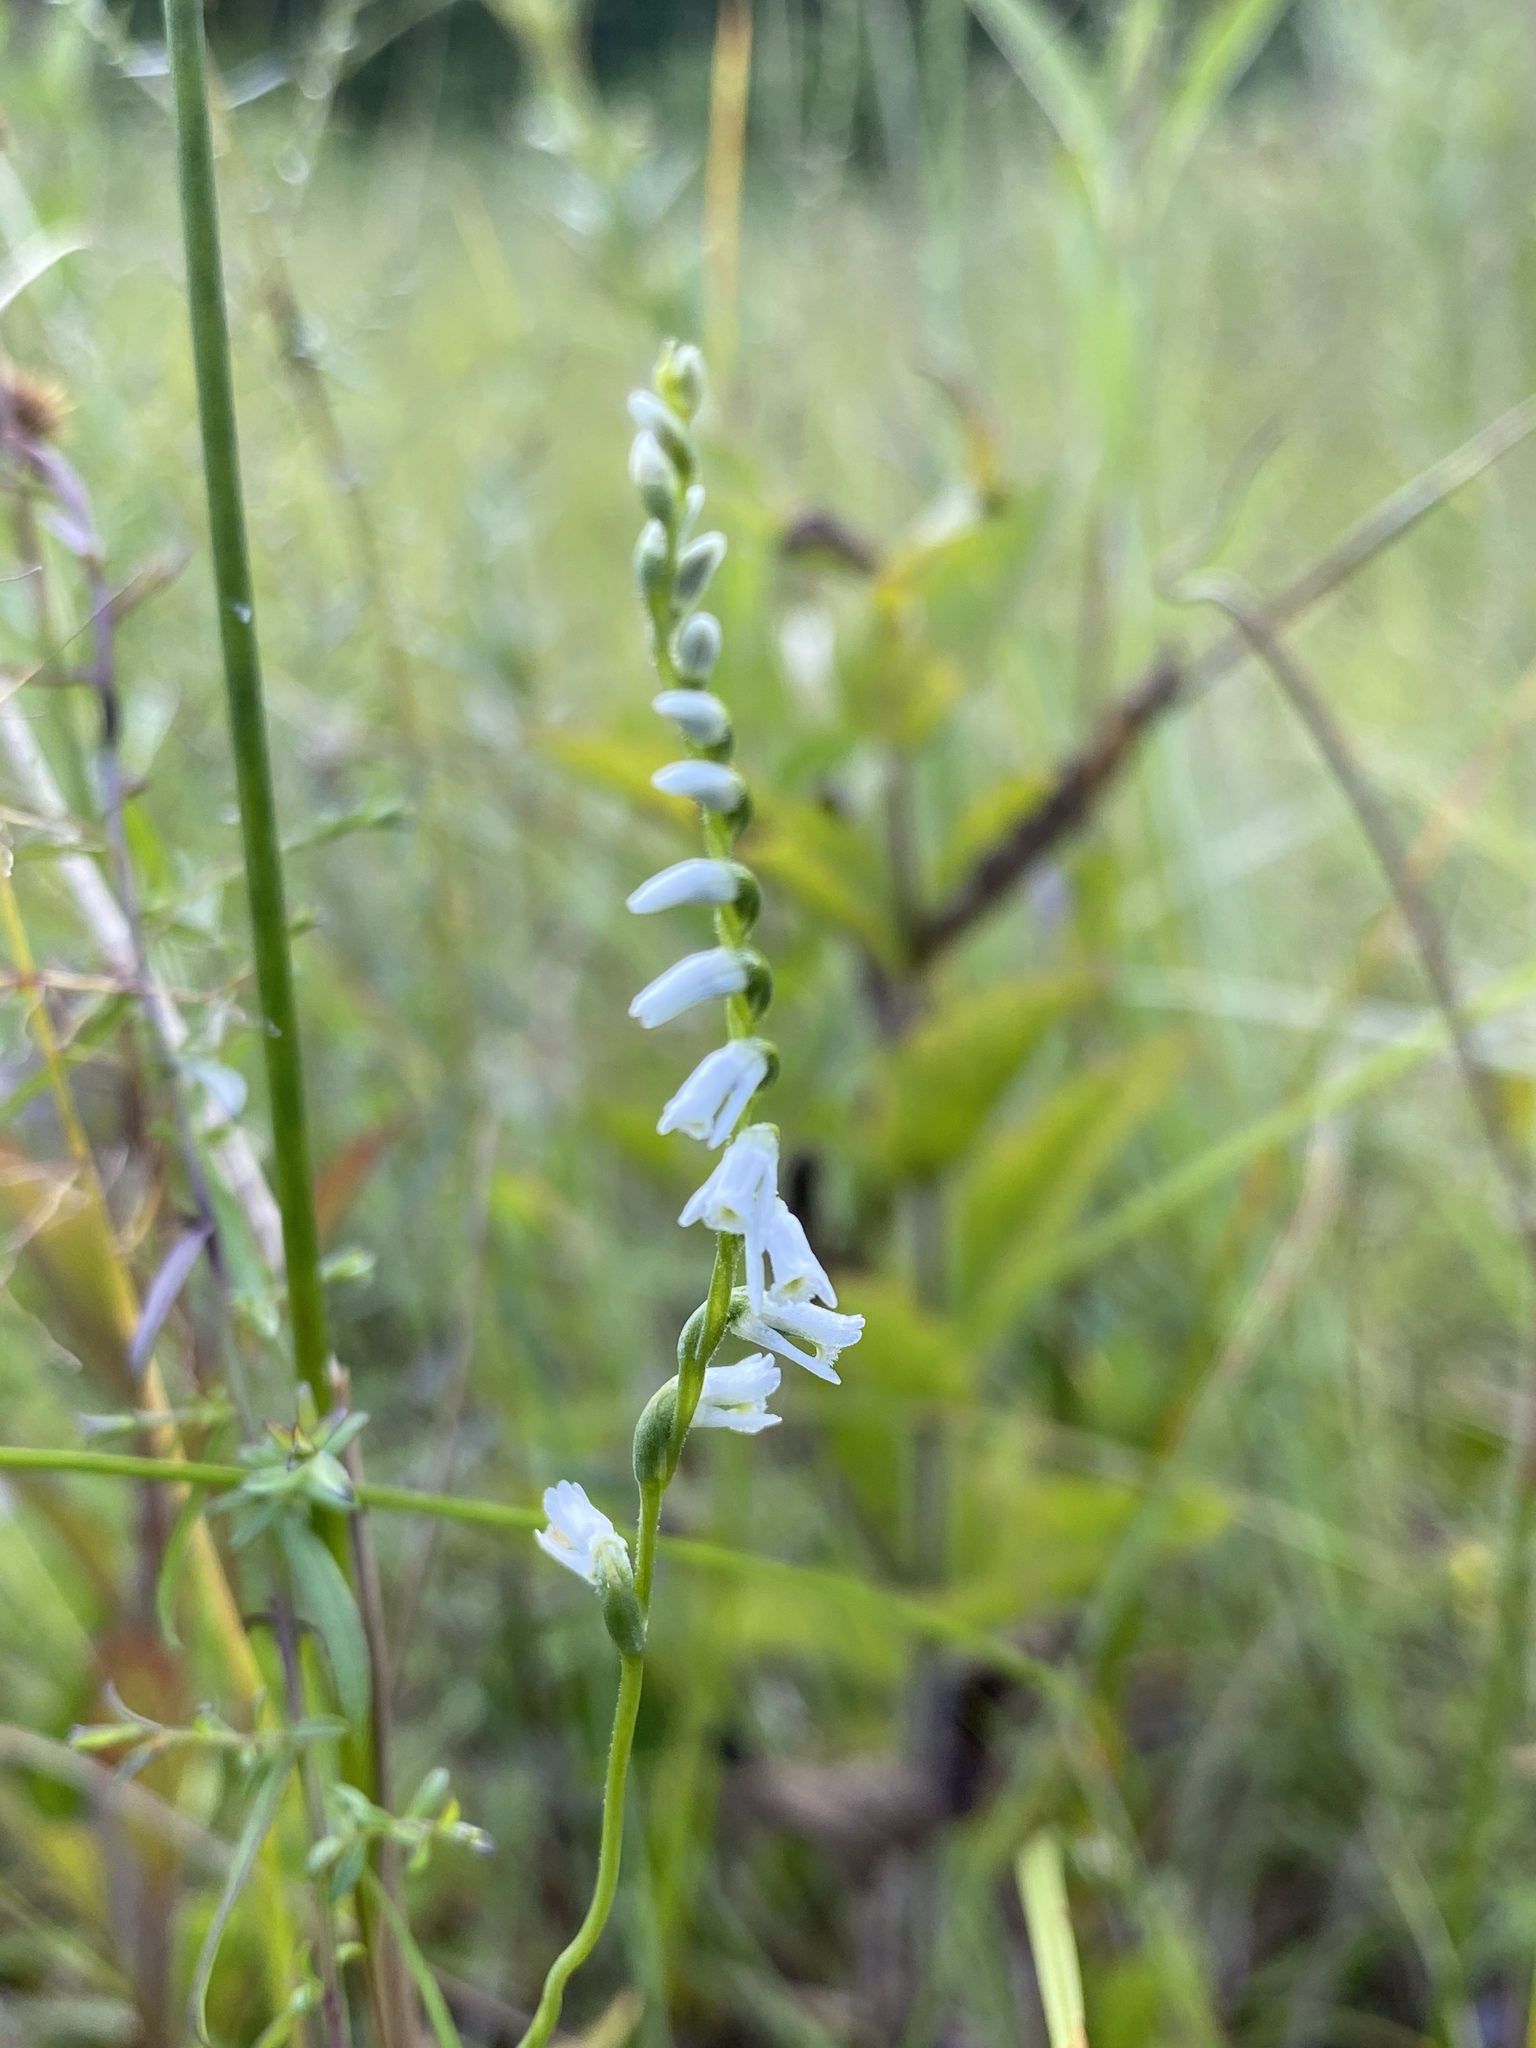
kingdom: Plantae
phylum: Tracheophyta
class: Liliopsida
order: Asparagales
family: Orchidaceae
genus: Spiranthes
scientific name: Spiranthes lacera
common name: Northern slender ladies'-tresses
